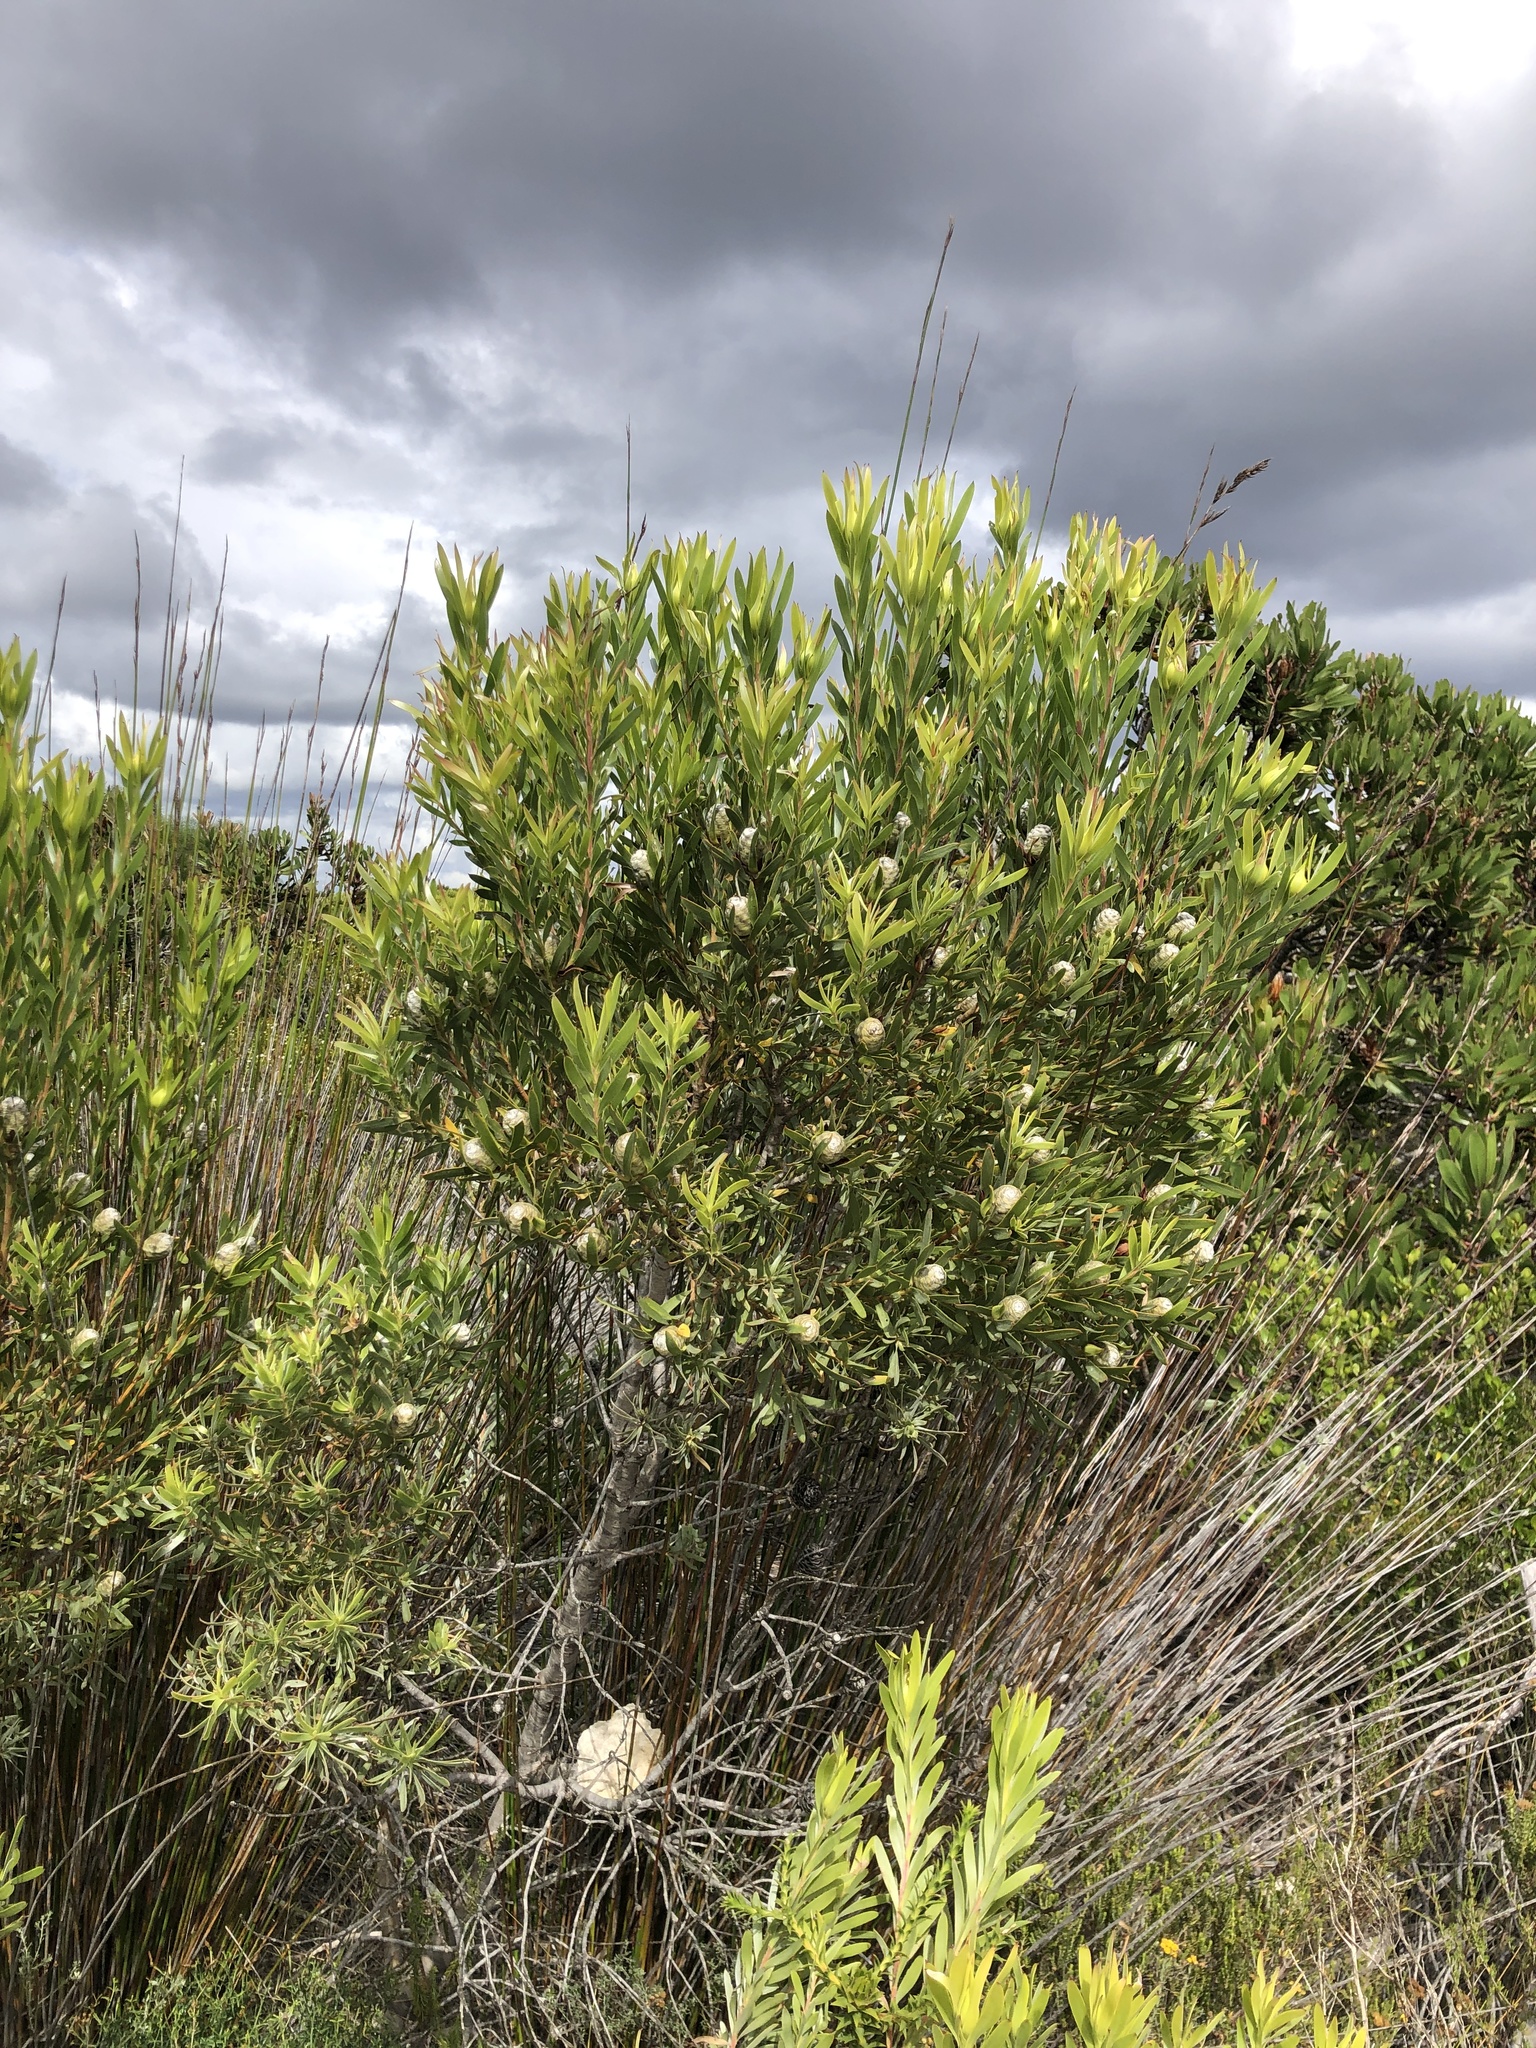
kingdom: Plantae
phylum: Tracheophyta
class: Magnoliopsida
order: Proteales
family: Proteaceae
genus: Leucadendron
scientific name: Leucadendron meridianum
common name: Limestone conebush
